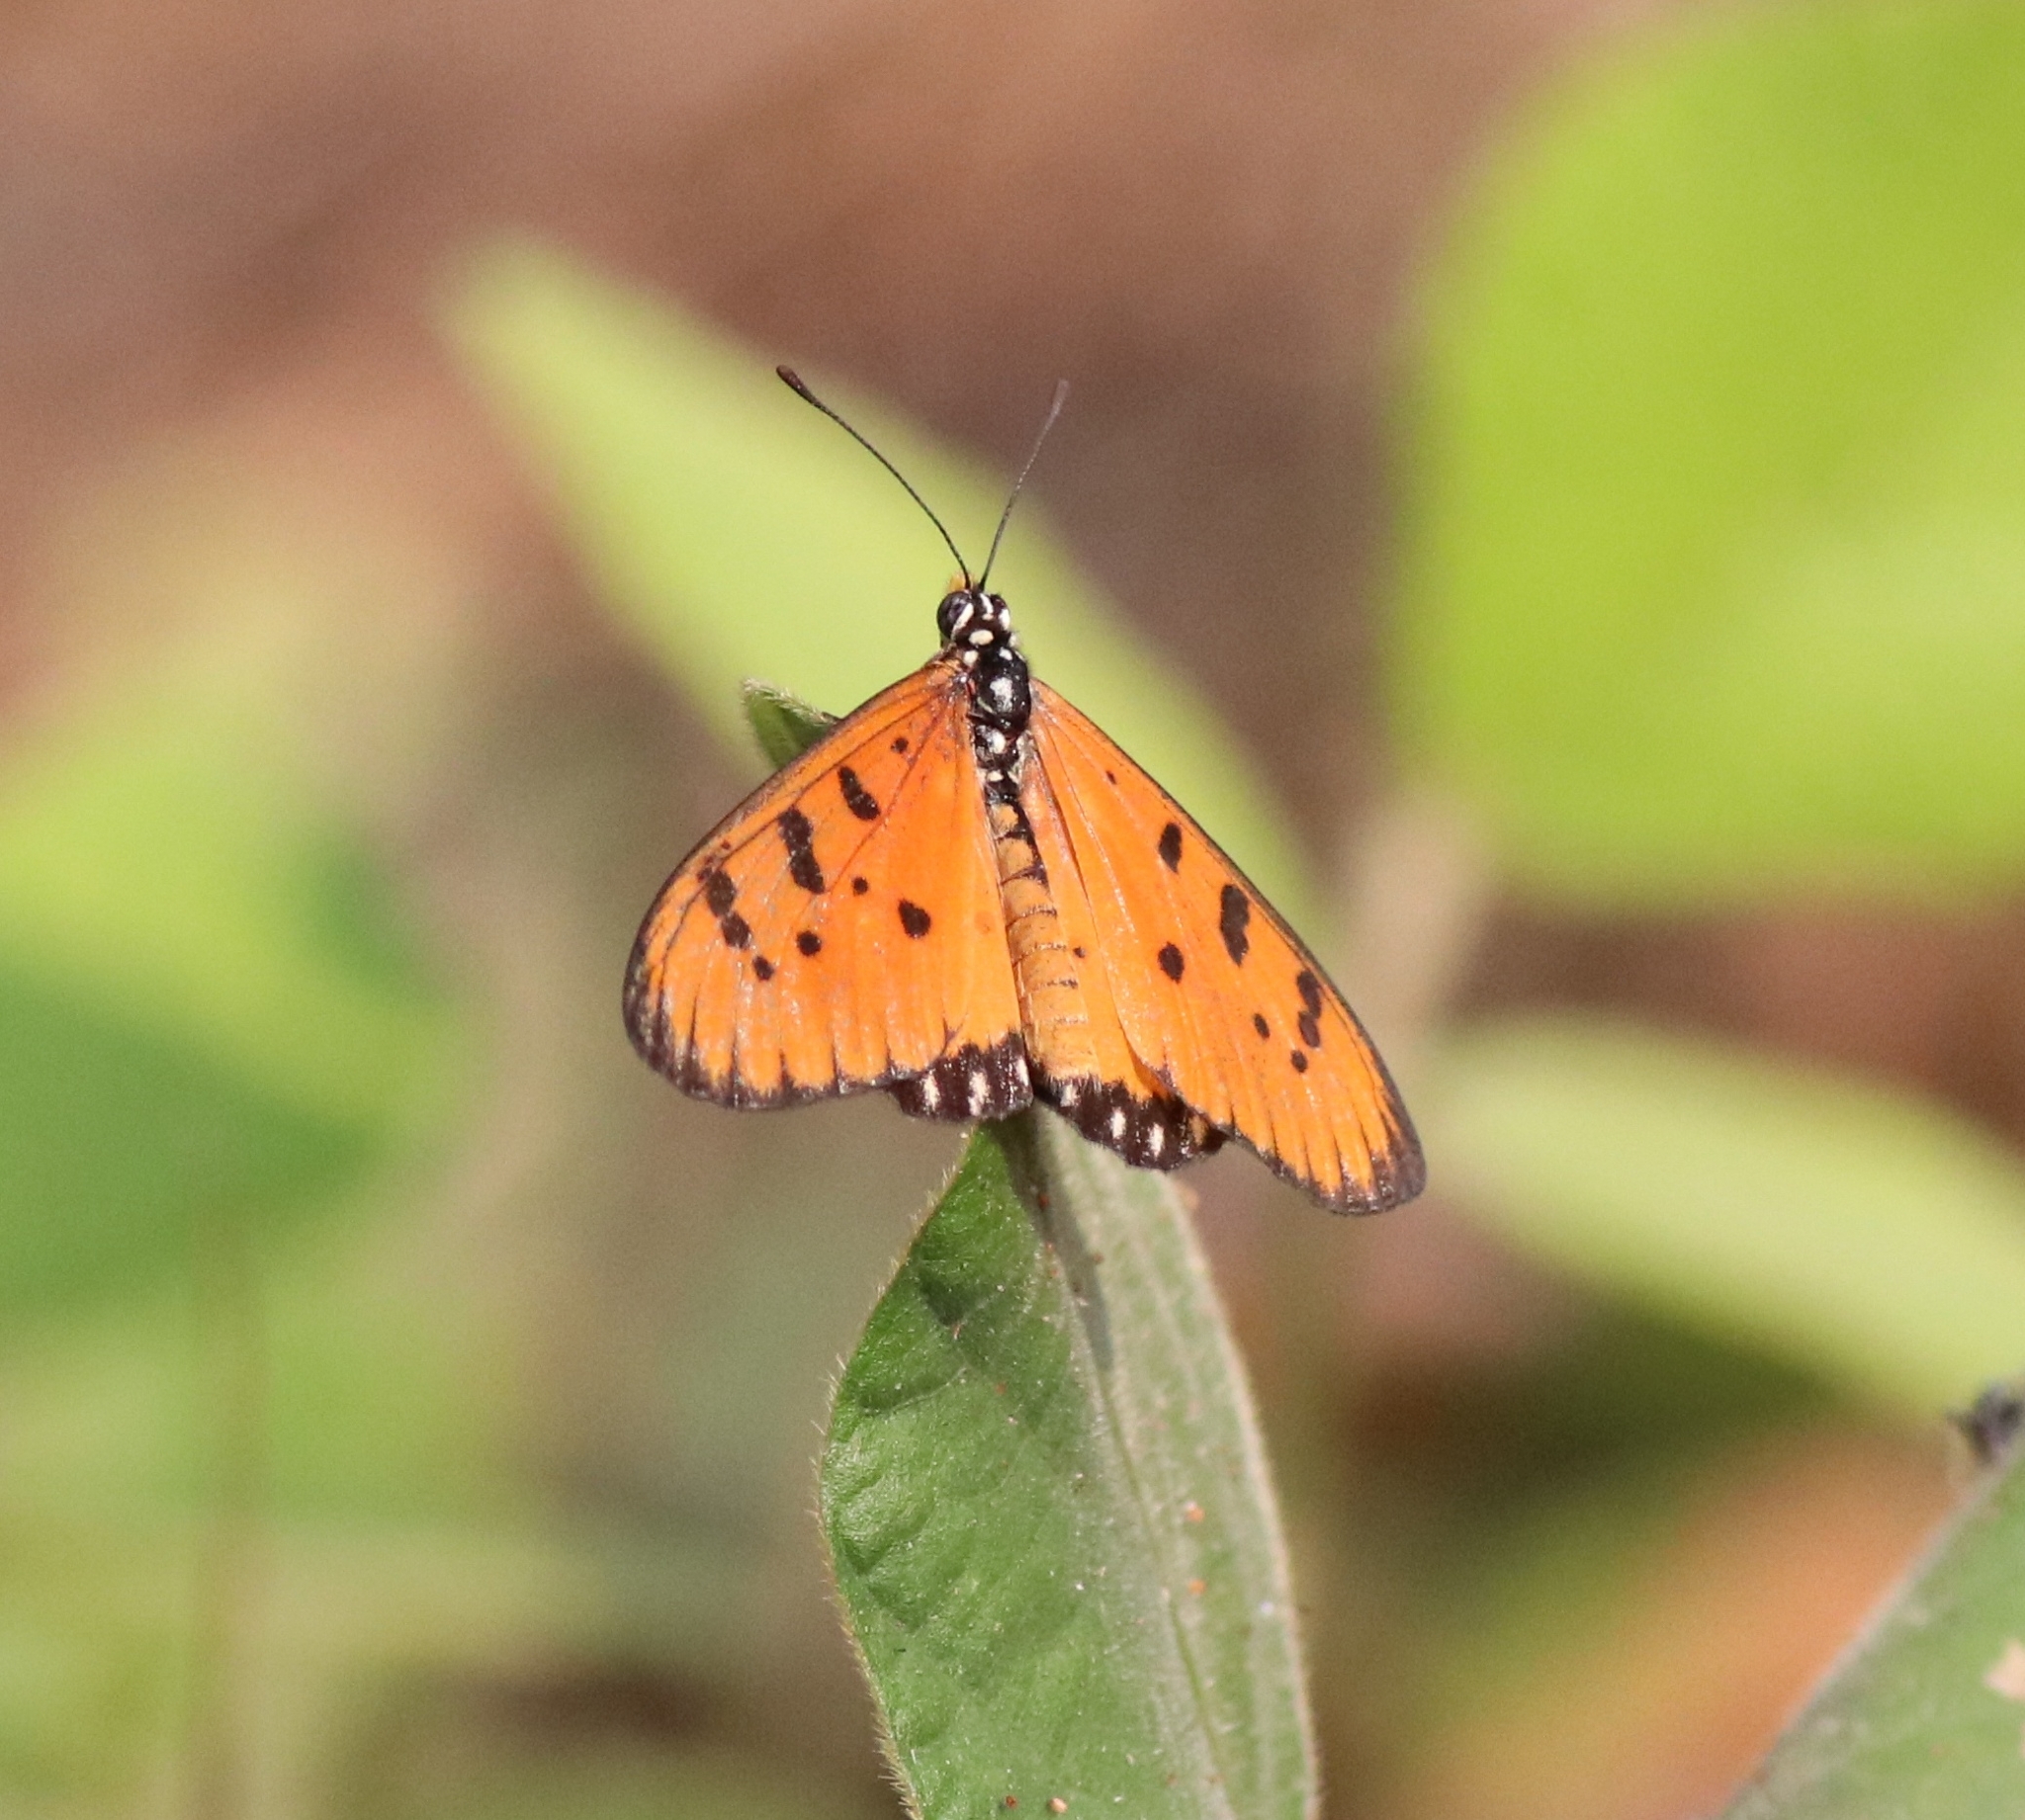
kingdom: Animalia
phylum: Arthropoda
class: Insecta
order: Lepidoptera
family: Nymphalidae
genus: Acraea
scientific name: Acraea terpsicore
